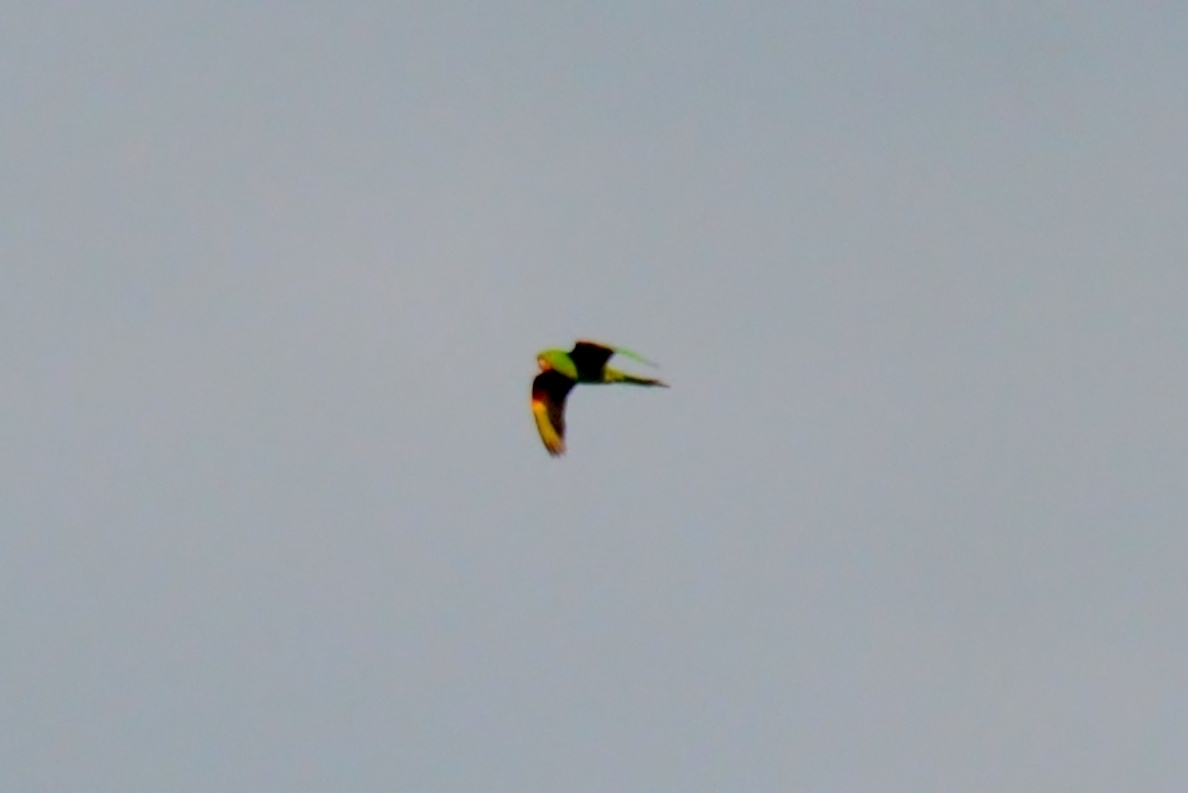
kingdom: Animalia
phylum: Chordata
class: Aves
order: Psittaciformes
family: Psittacidae
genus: Aratinga
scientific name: Aratinga leucophthalma
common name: White-eyed parakeet
